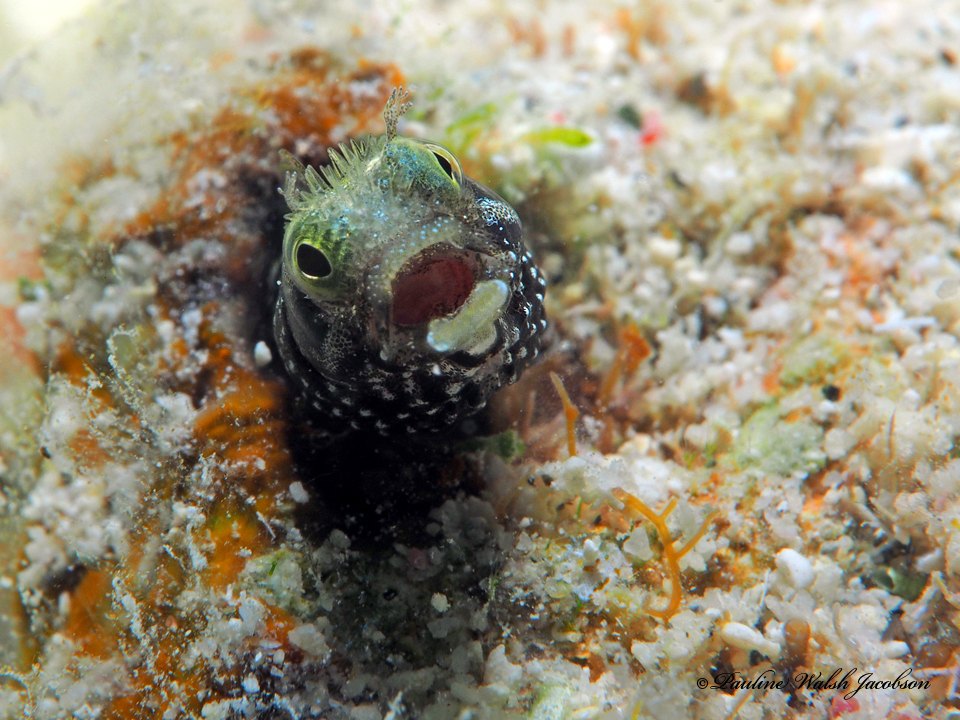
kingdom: Animalia
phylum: Chordata
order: Perciformes
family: Chaenopsidae
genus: Acanthemblemaria
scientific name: Acanthemblemaria spinosa
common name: Spinyhead blenny
